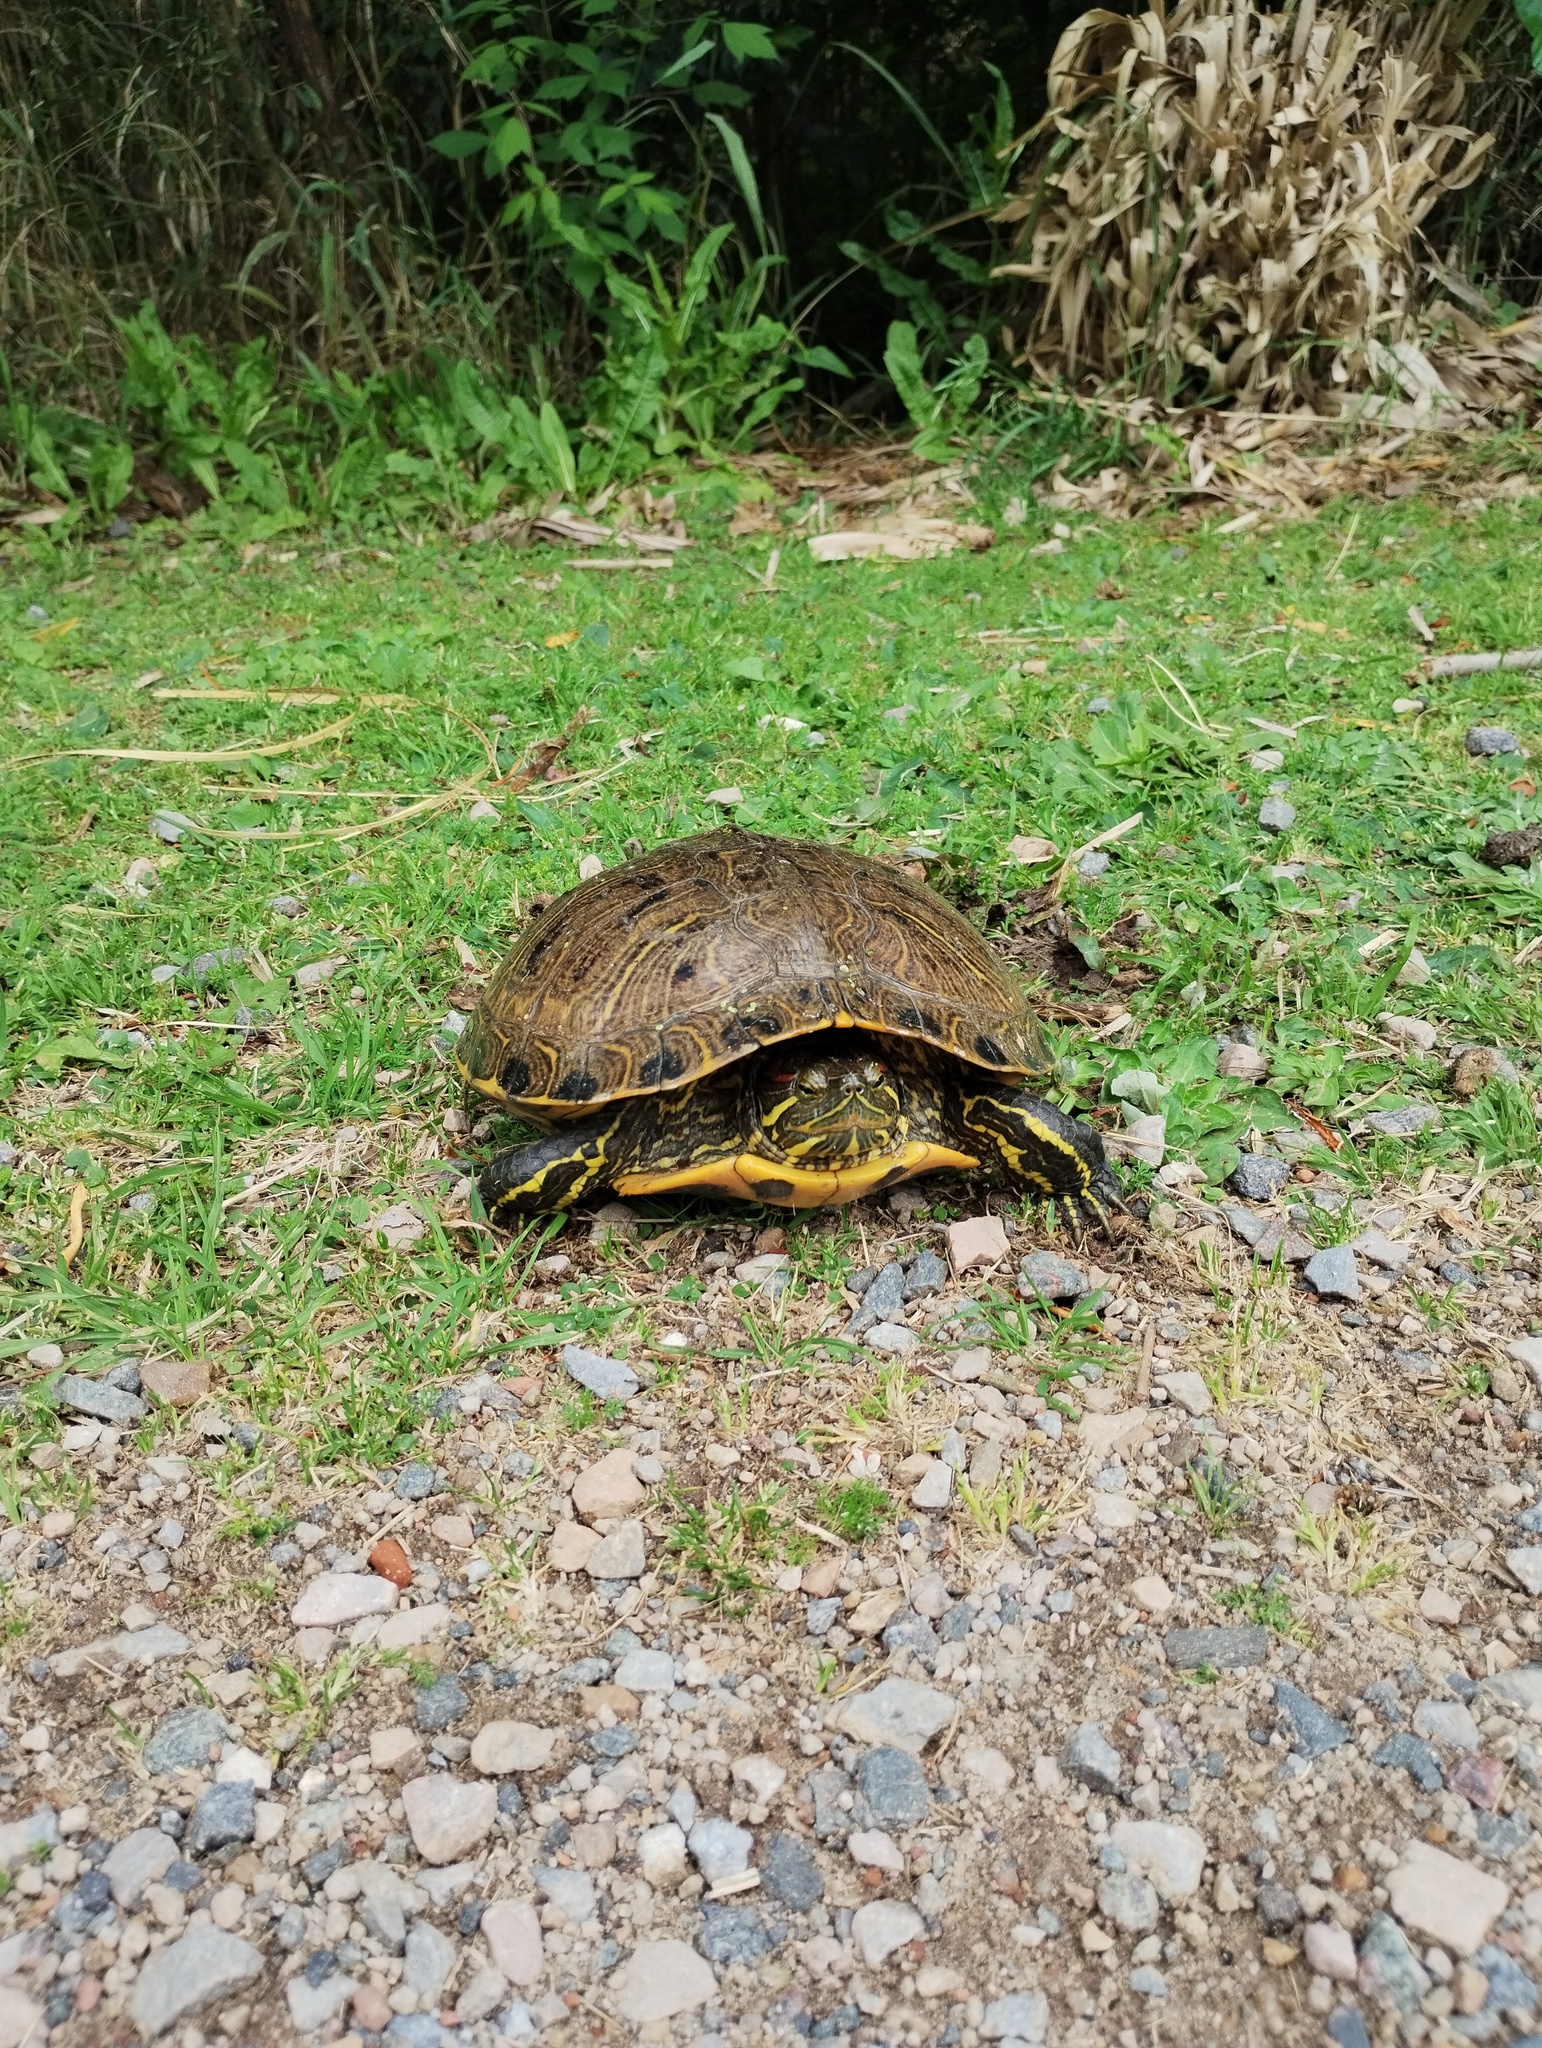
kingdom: Animalia
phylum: Chordata
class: Testudines
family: Emydidae
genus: Trachemys
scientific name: Trachemys scripta
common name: Slider
